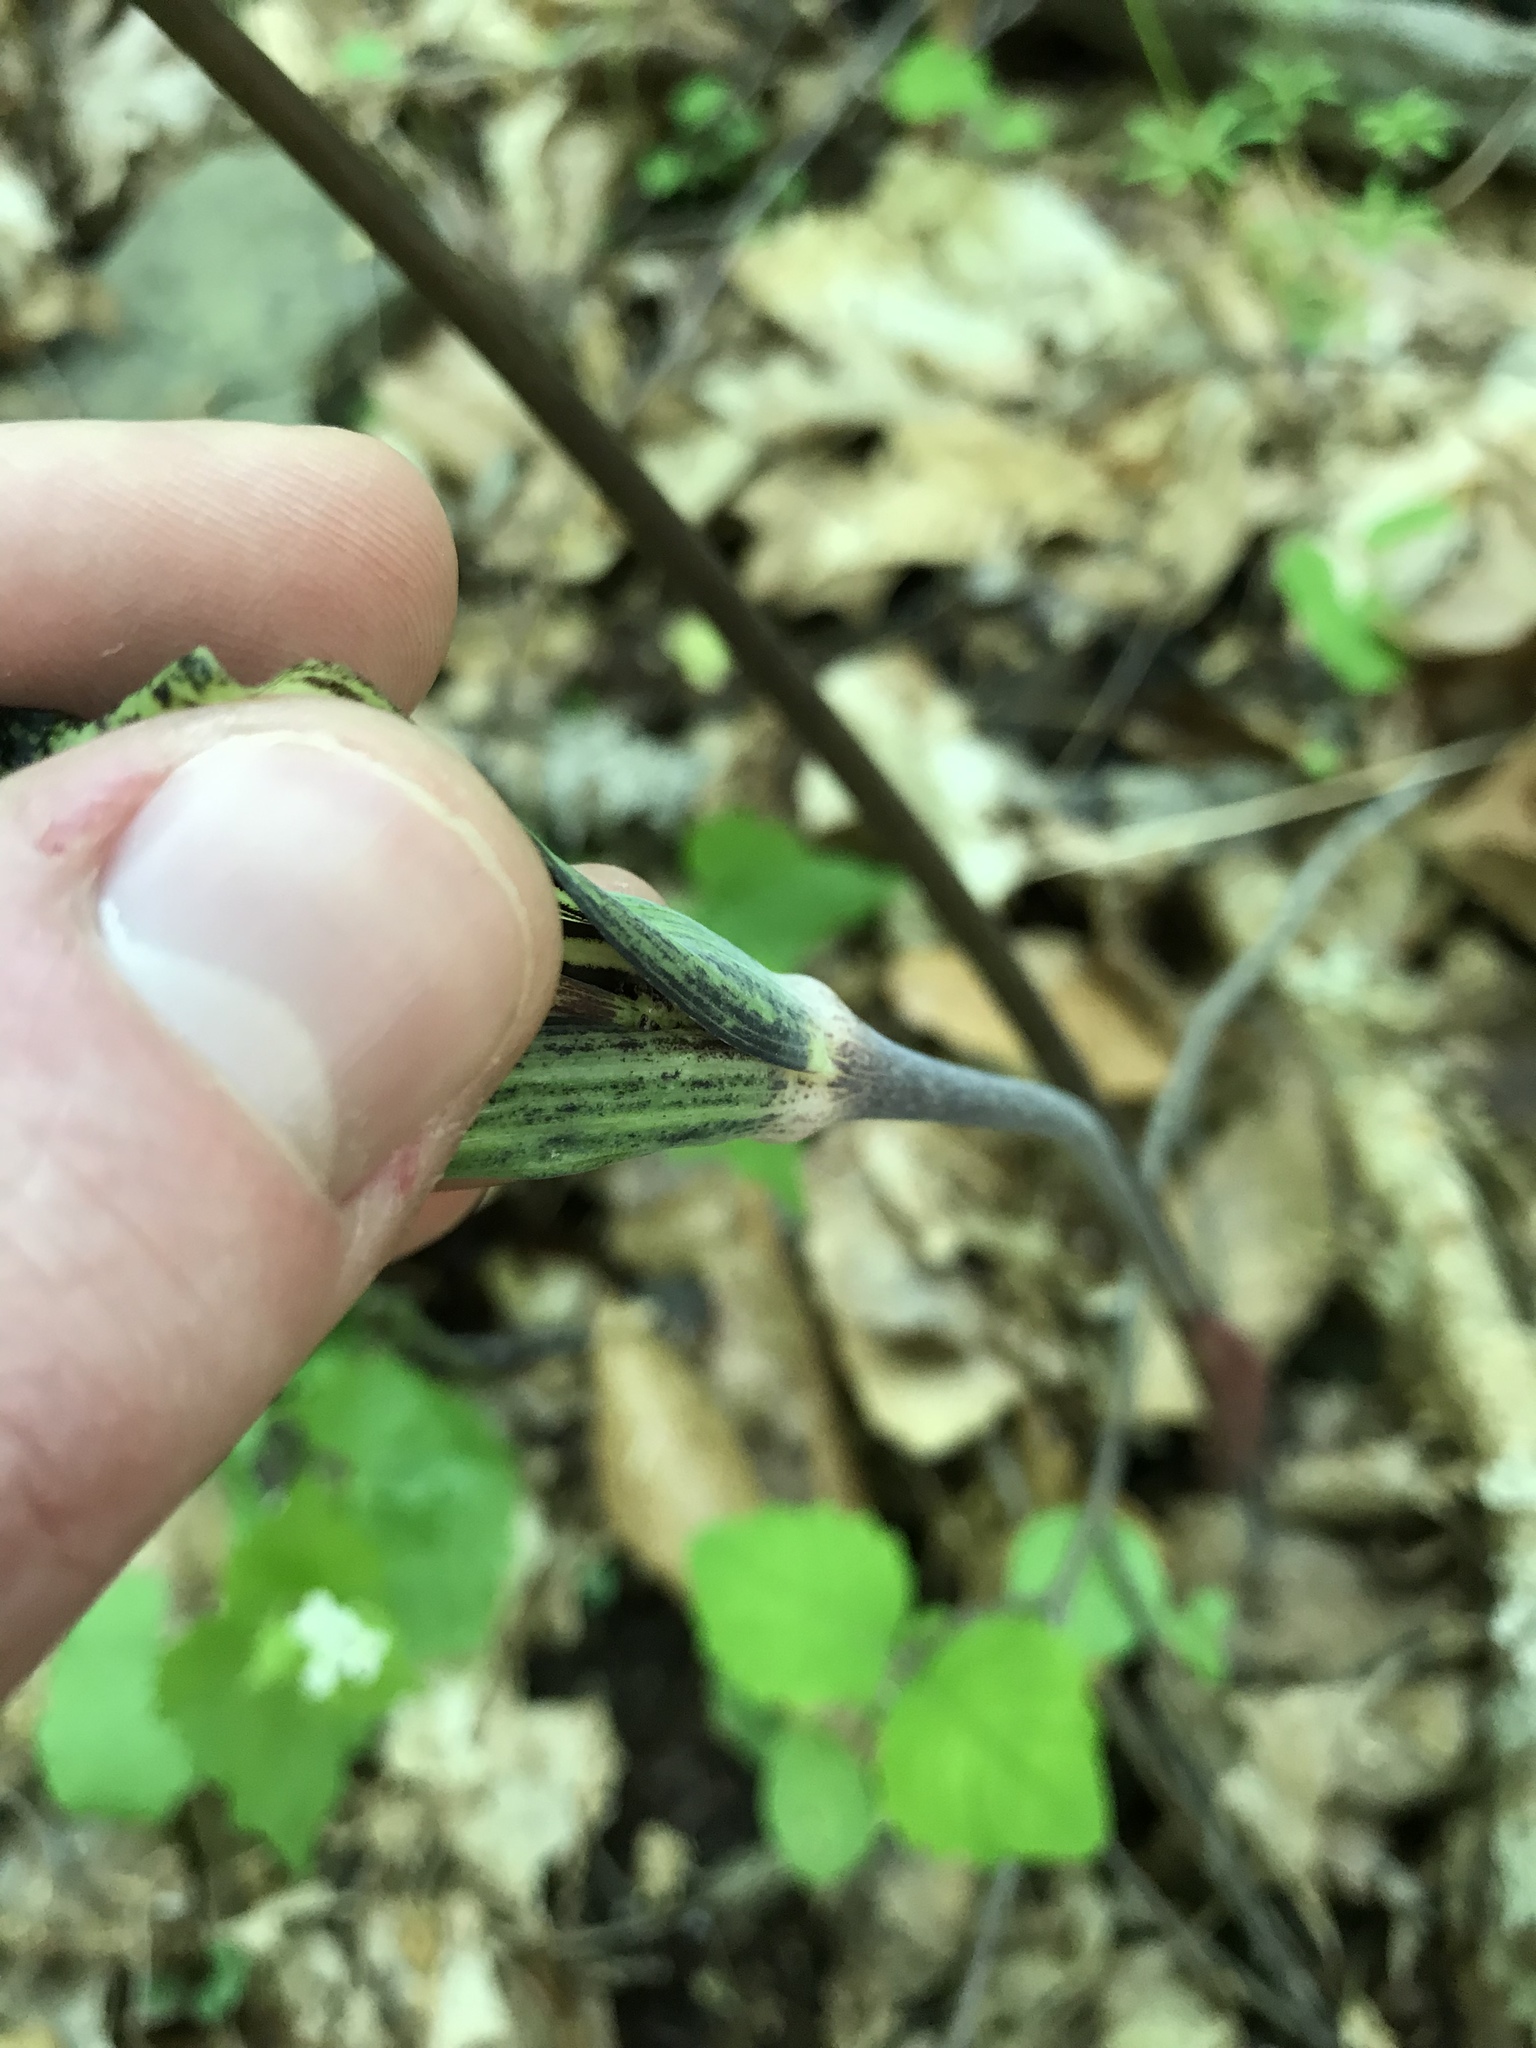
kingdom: Plantae
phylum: Tracheophyta
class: Liliopsida
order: Alismatales
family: Araceae
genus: Arisaema
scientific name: Arisaema triphyllum
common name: Jack-in-the-pulpit
